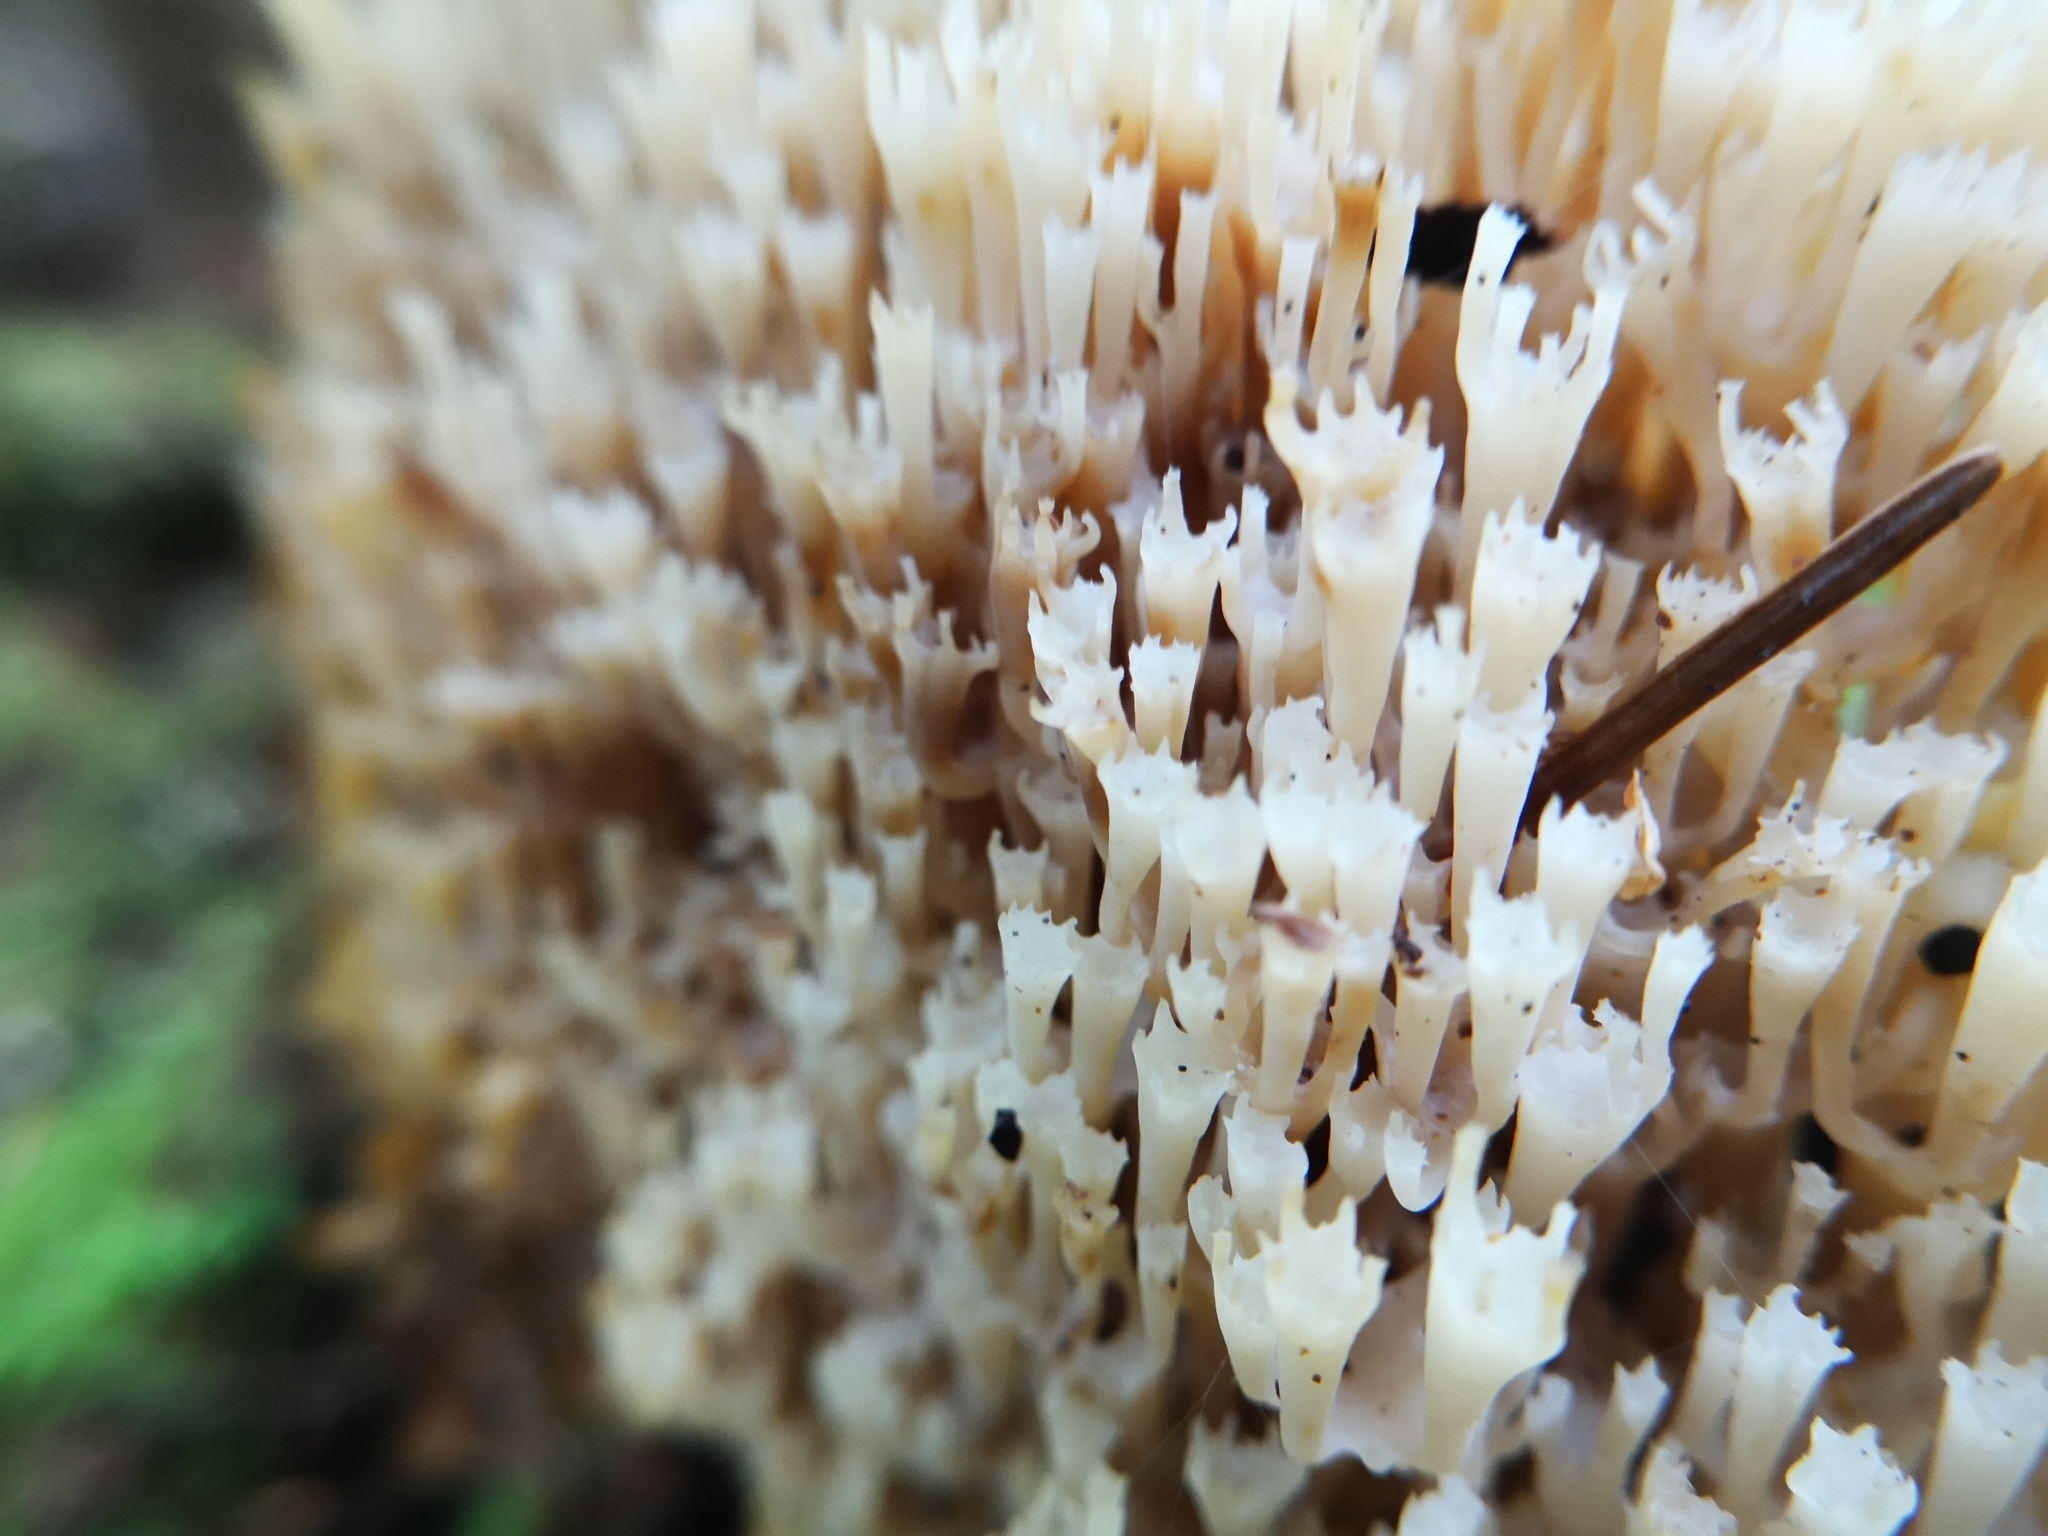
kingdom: Fungi
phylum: Basidiomycota
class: Agaricomycetes
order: Russulales
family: Auriscalpiaceae
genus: Artomyces
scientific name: Artomyces pyxidatus
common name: Crown-tipped coral fungus
